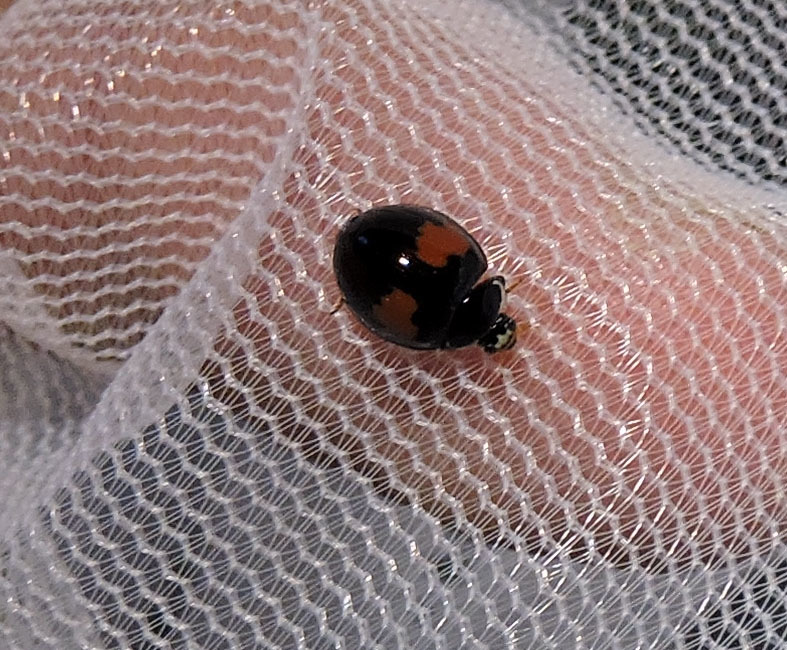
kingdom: Animalia
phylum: Arthropoda
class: Insecta
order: Coleoptera
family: Coccinellidae
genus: Olla
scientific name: Olla v-nigrum
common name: Ashy gray lady beetle
